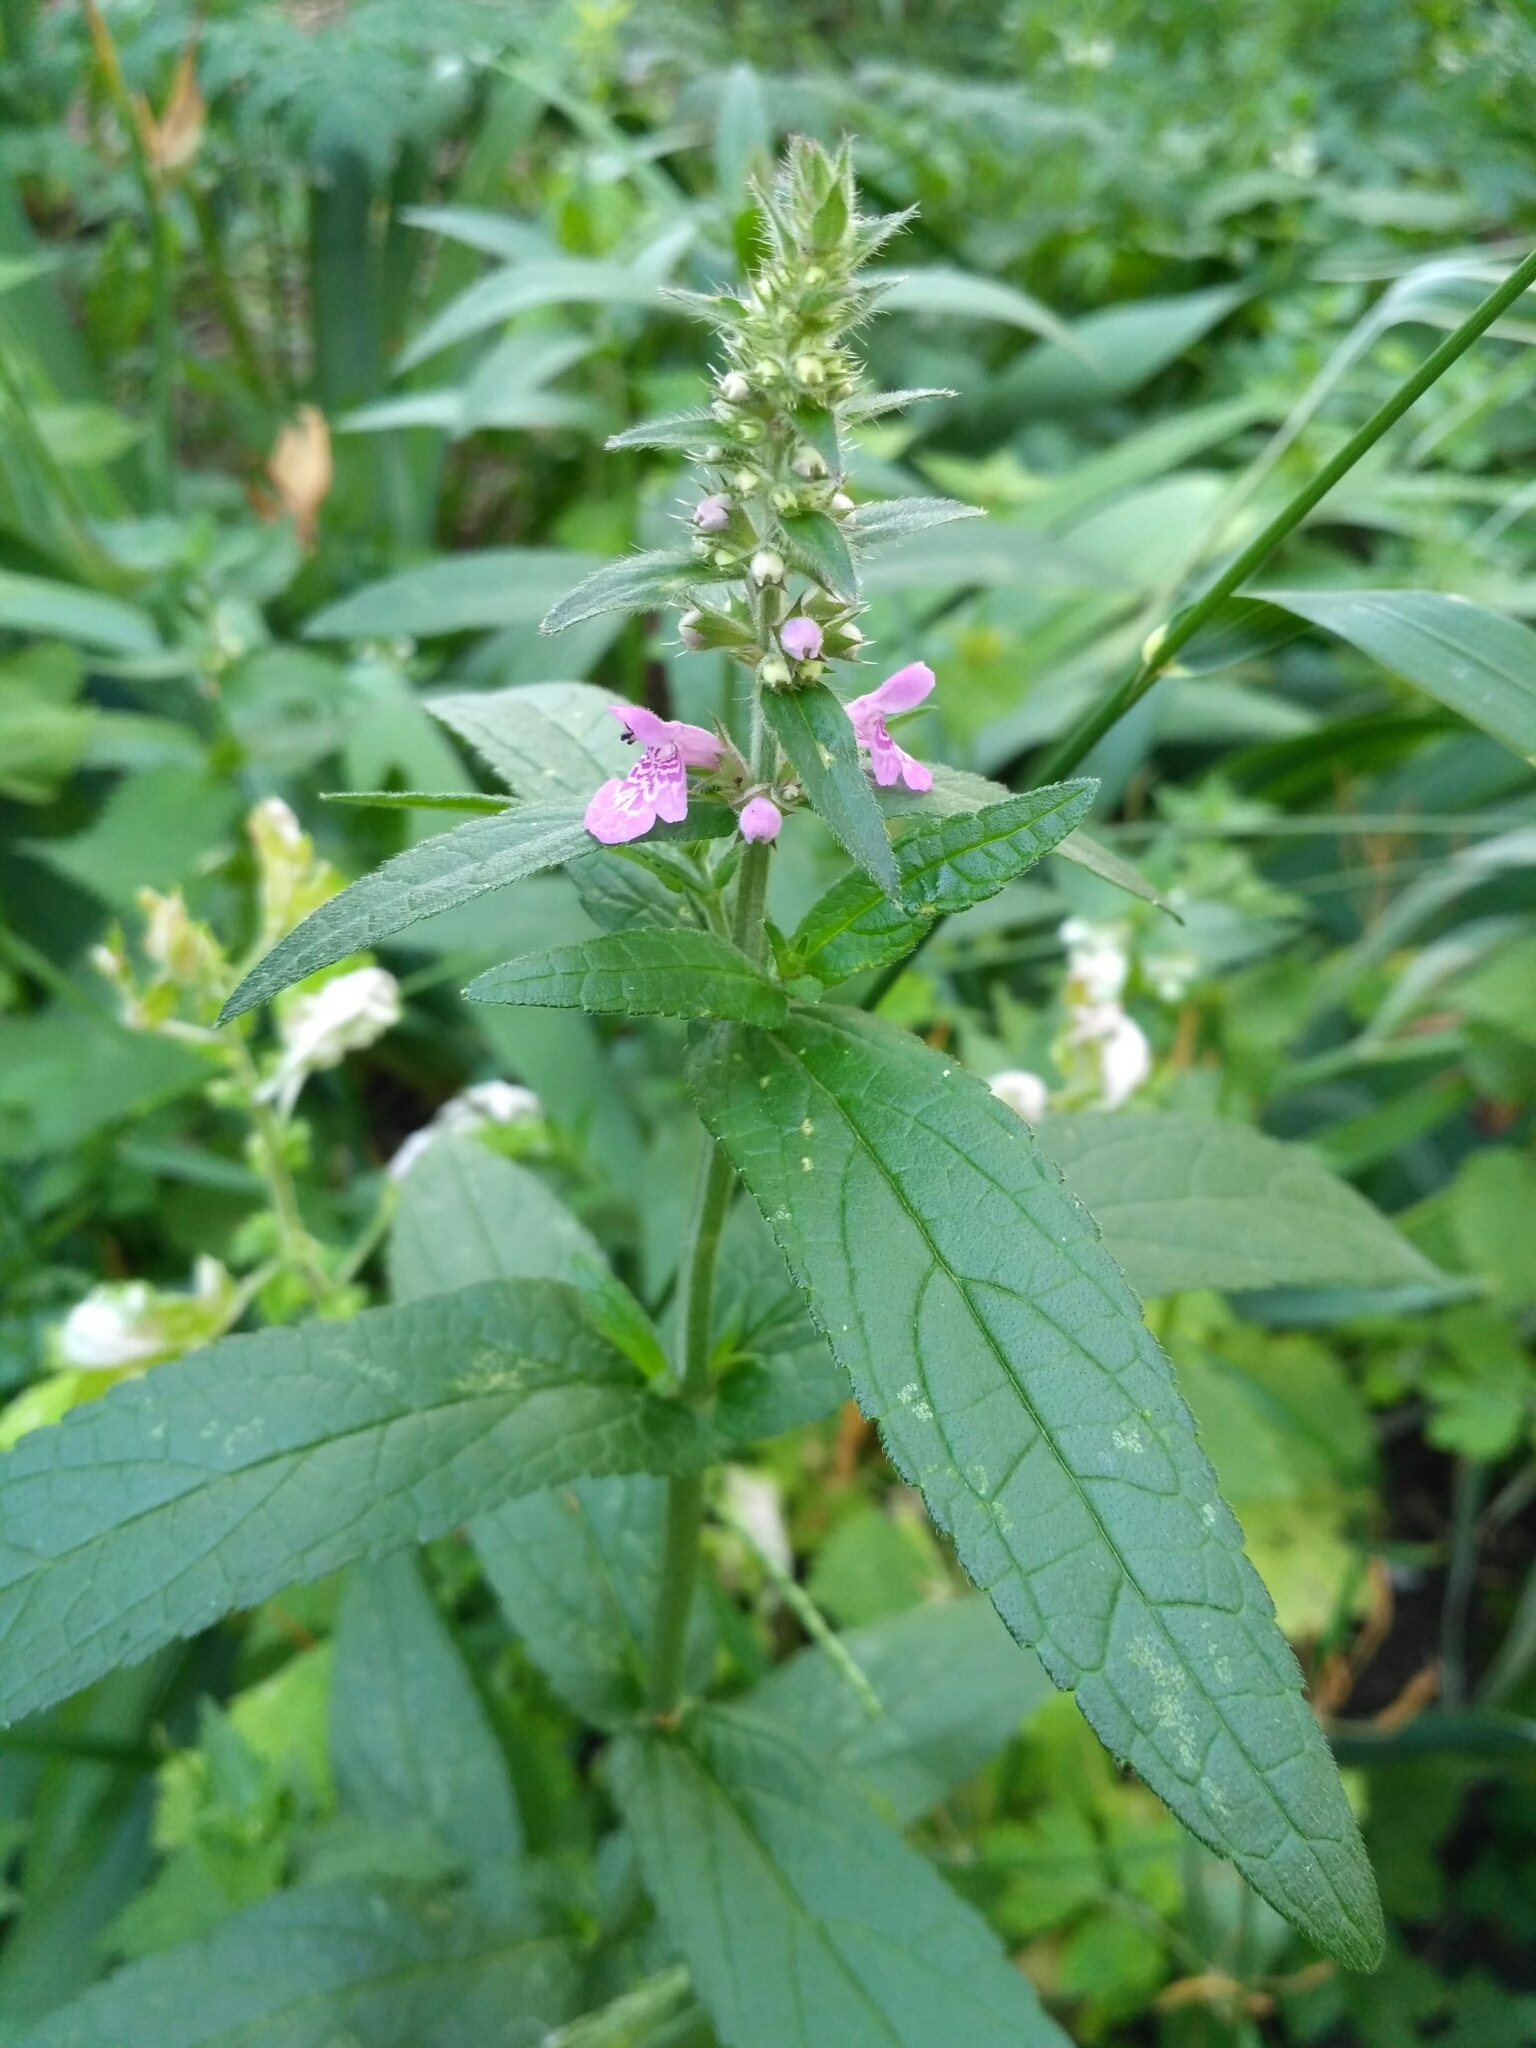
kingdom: Plantae
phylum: Tracheophyta
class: Magnoliopsida
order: Lamiales
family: Lamiaceae
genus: Stachys
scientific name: Stachys palustris
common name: Marsh woundwort
